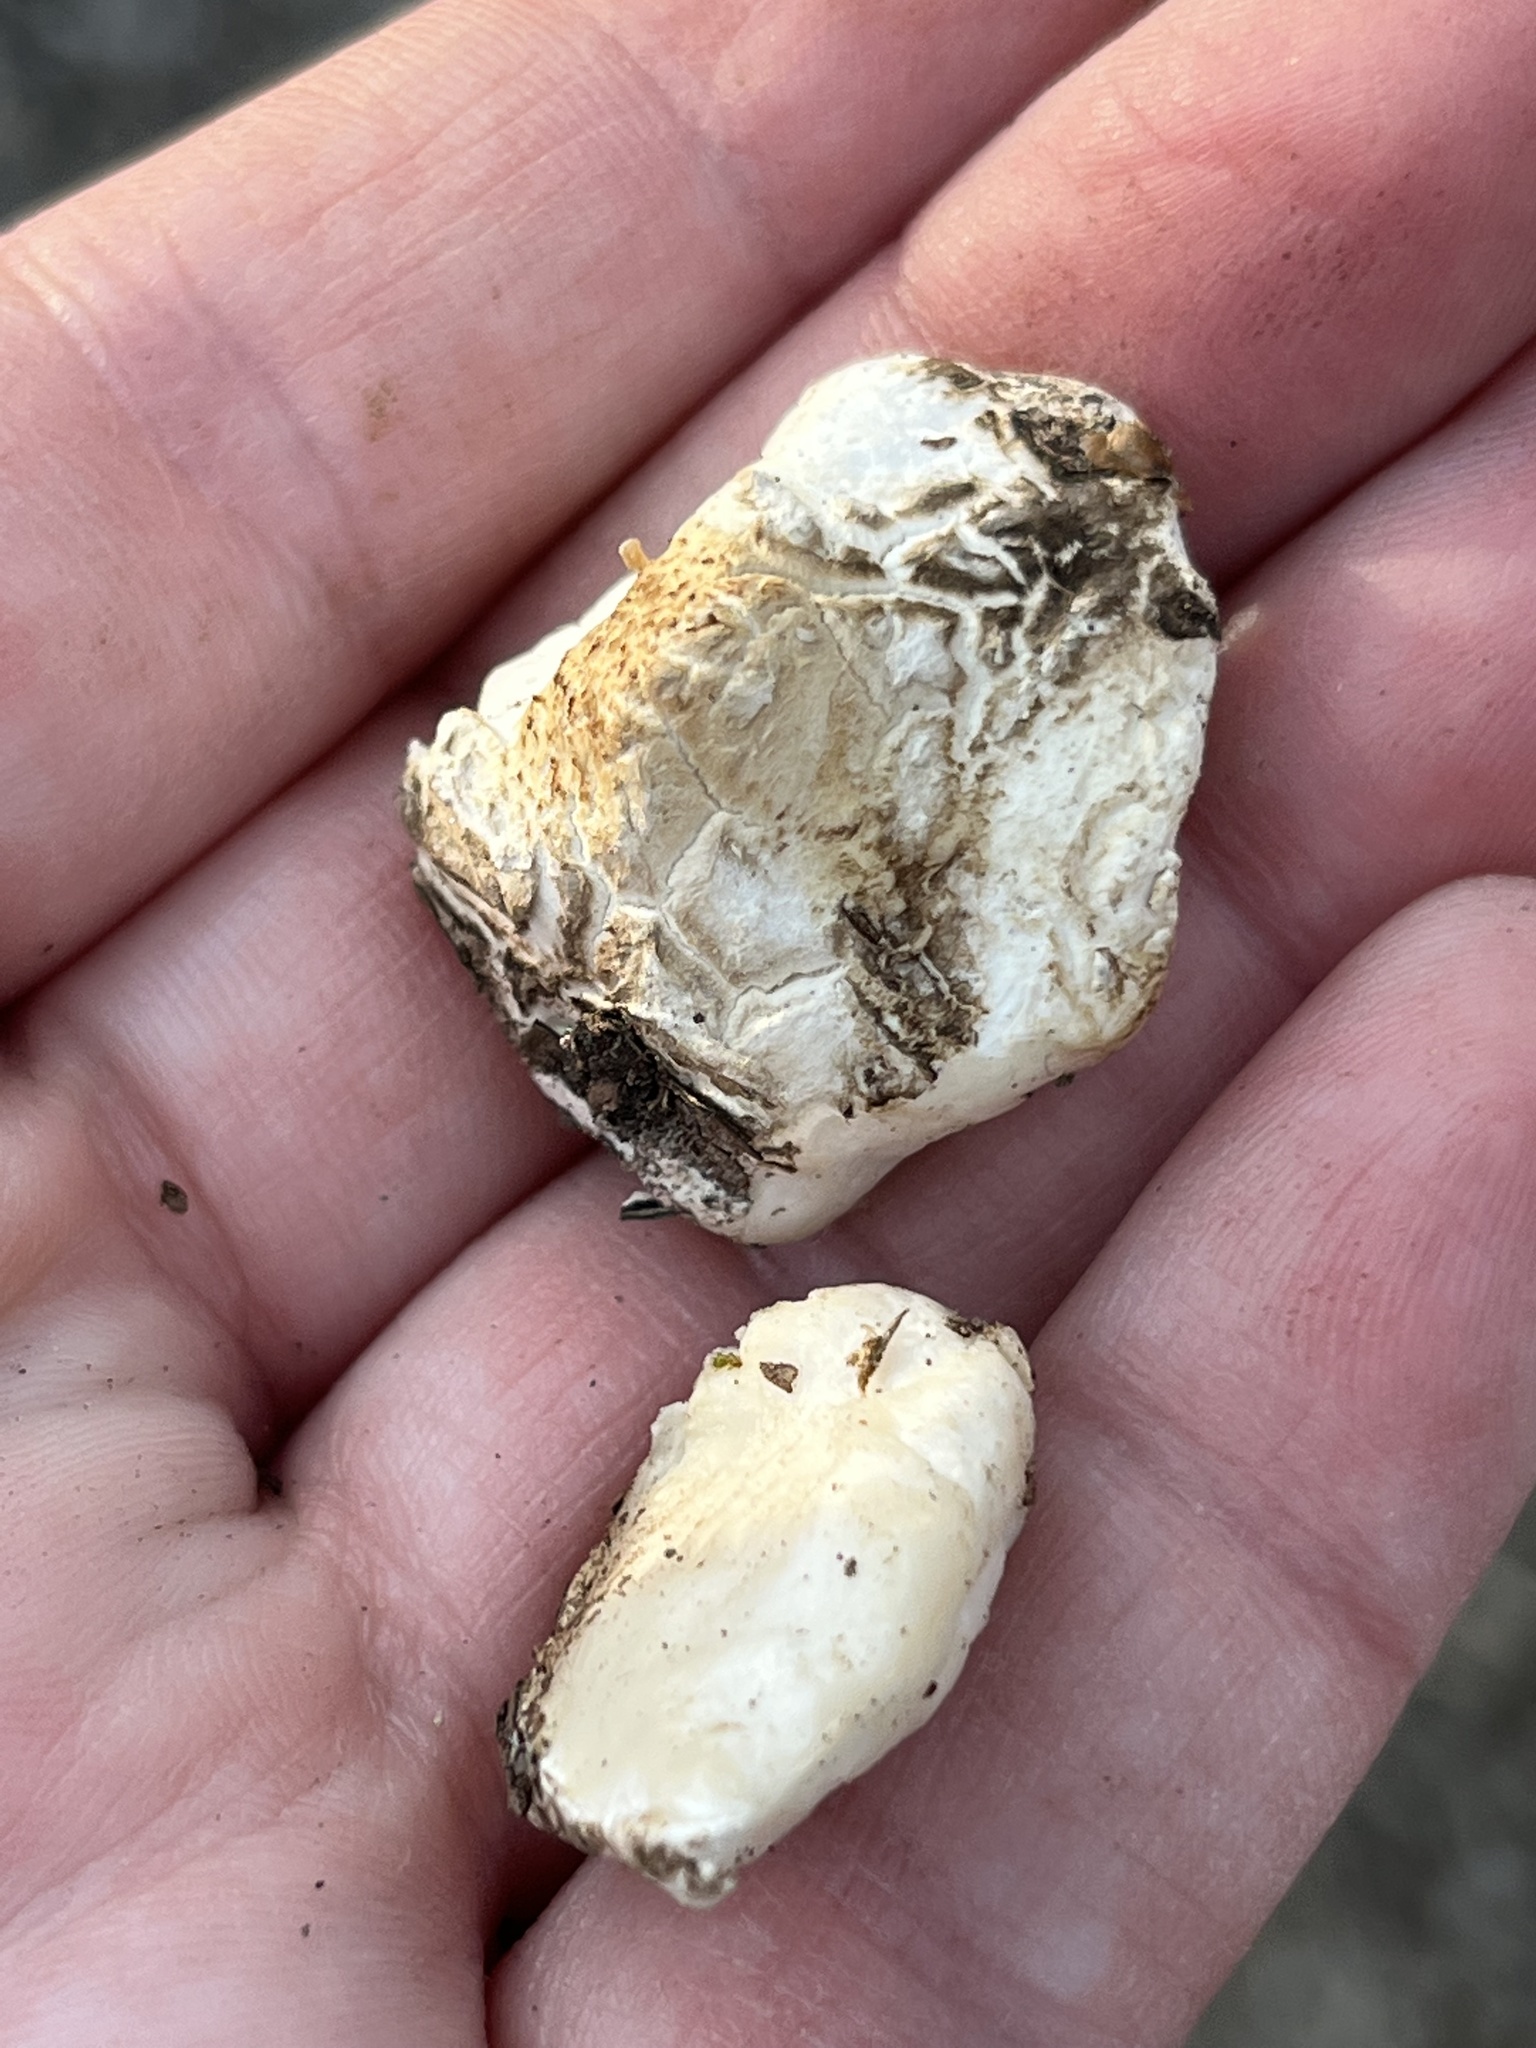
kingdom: Fungi
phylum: Basidiomycota
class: Agaricomycetes
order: Polyporales
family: Incrustoporiaceae
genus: Tyromyces
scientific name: Tyromyces chioneus
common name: White cheese polypore
